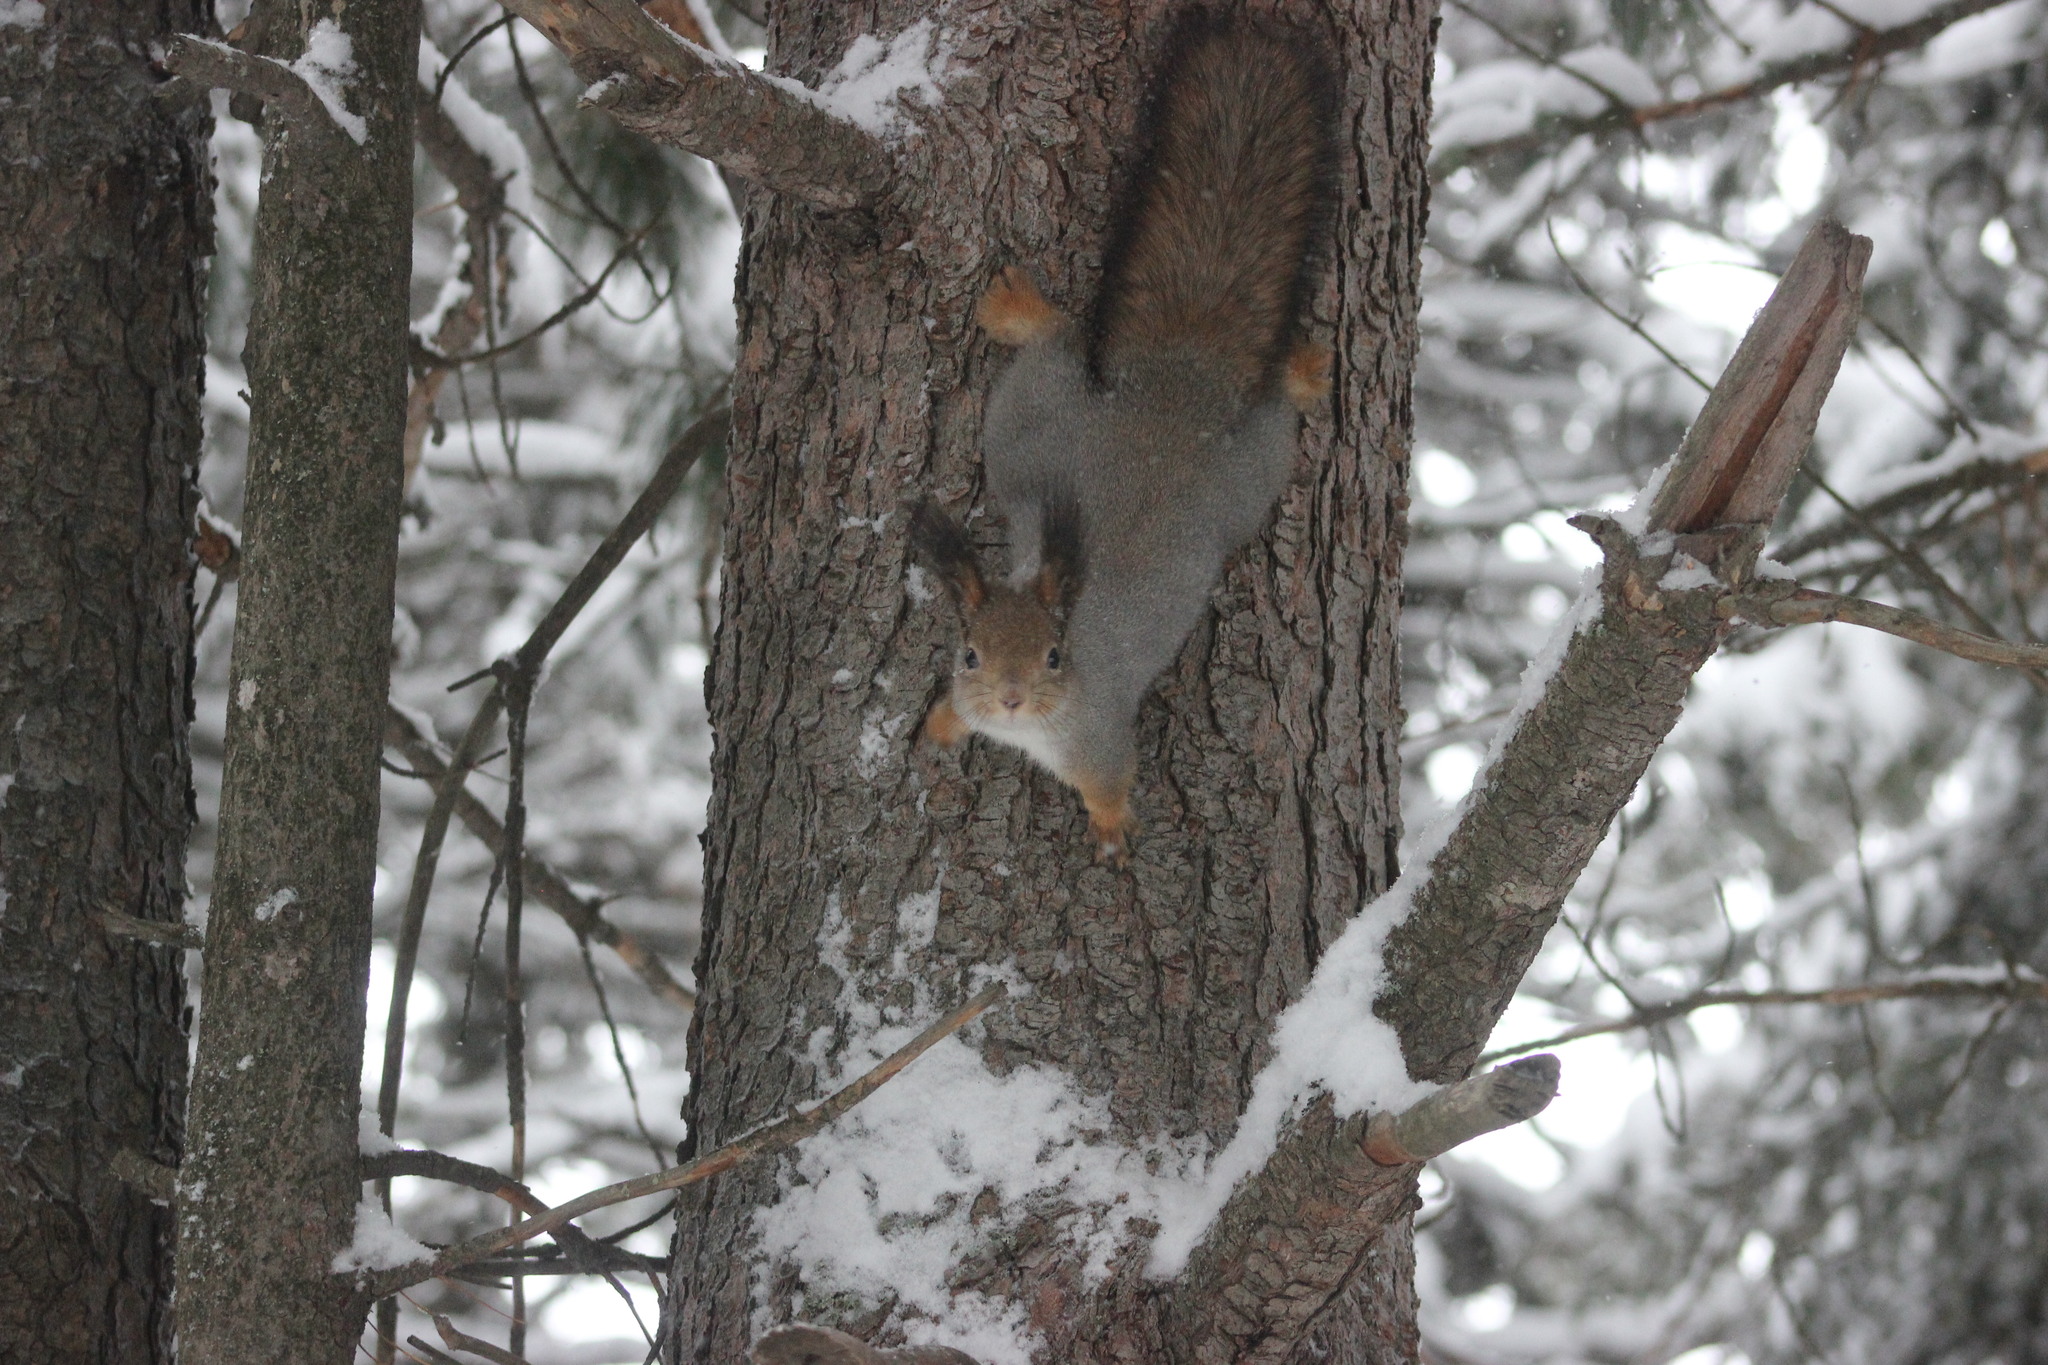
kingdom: Animalia
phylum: Chordata
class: Mammalia
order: Rodentia
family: Sciuridae
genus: Sciurus
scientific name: Sciurus vulgaris
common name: Eurasian red squirrel
